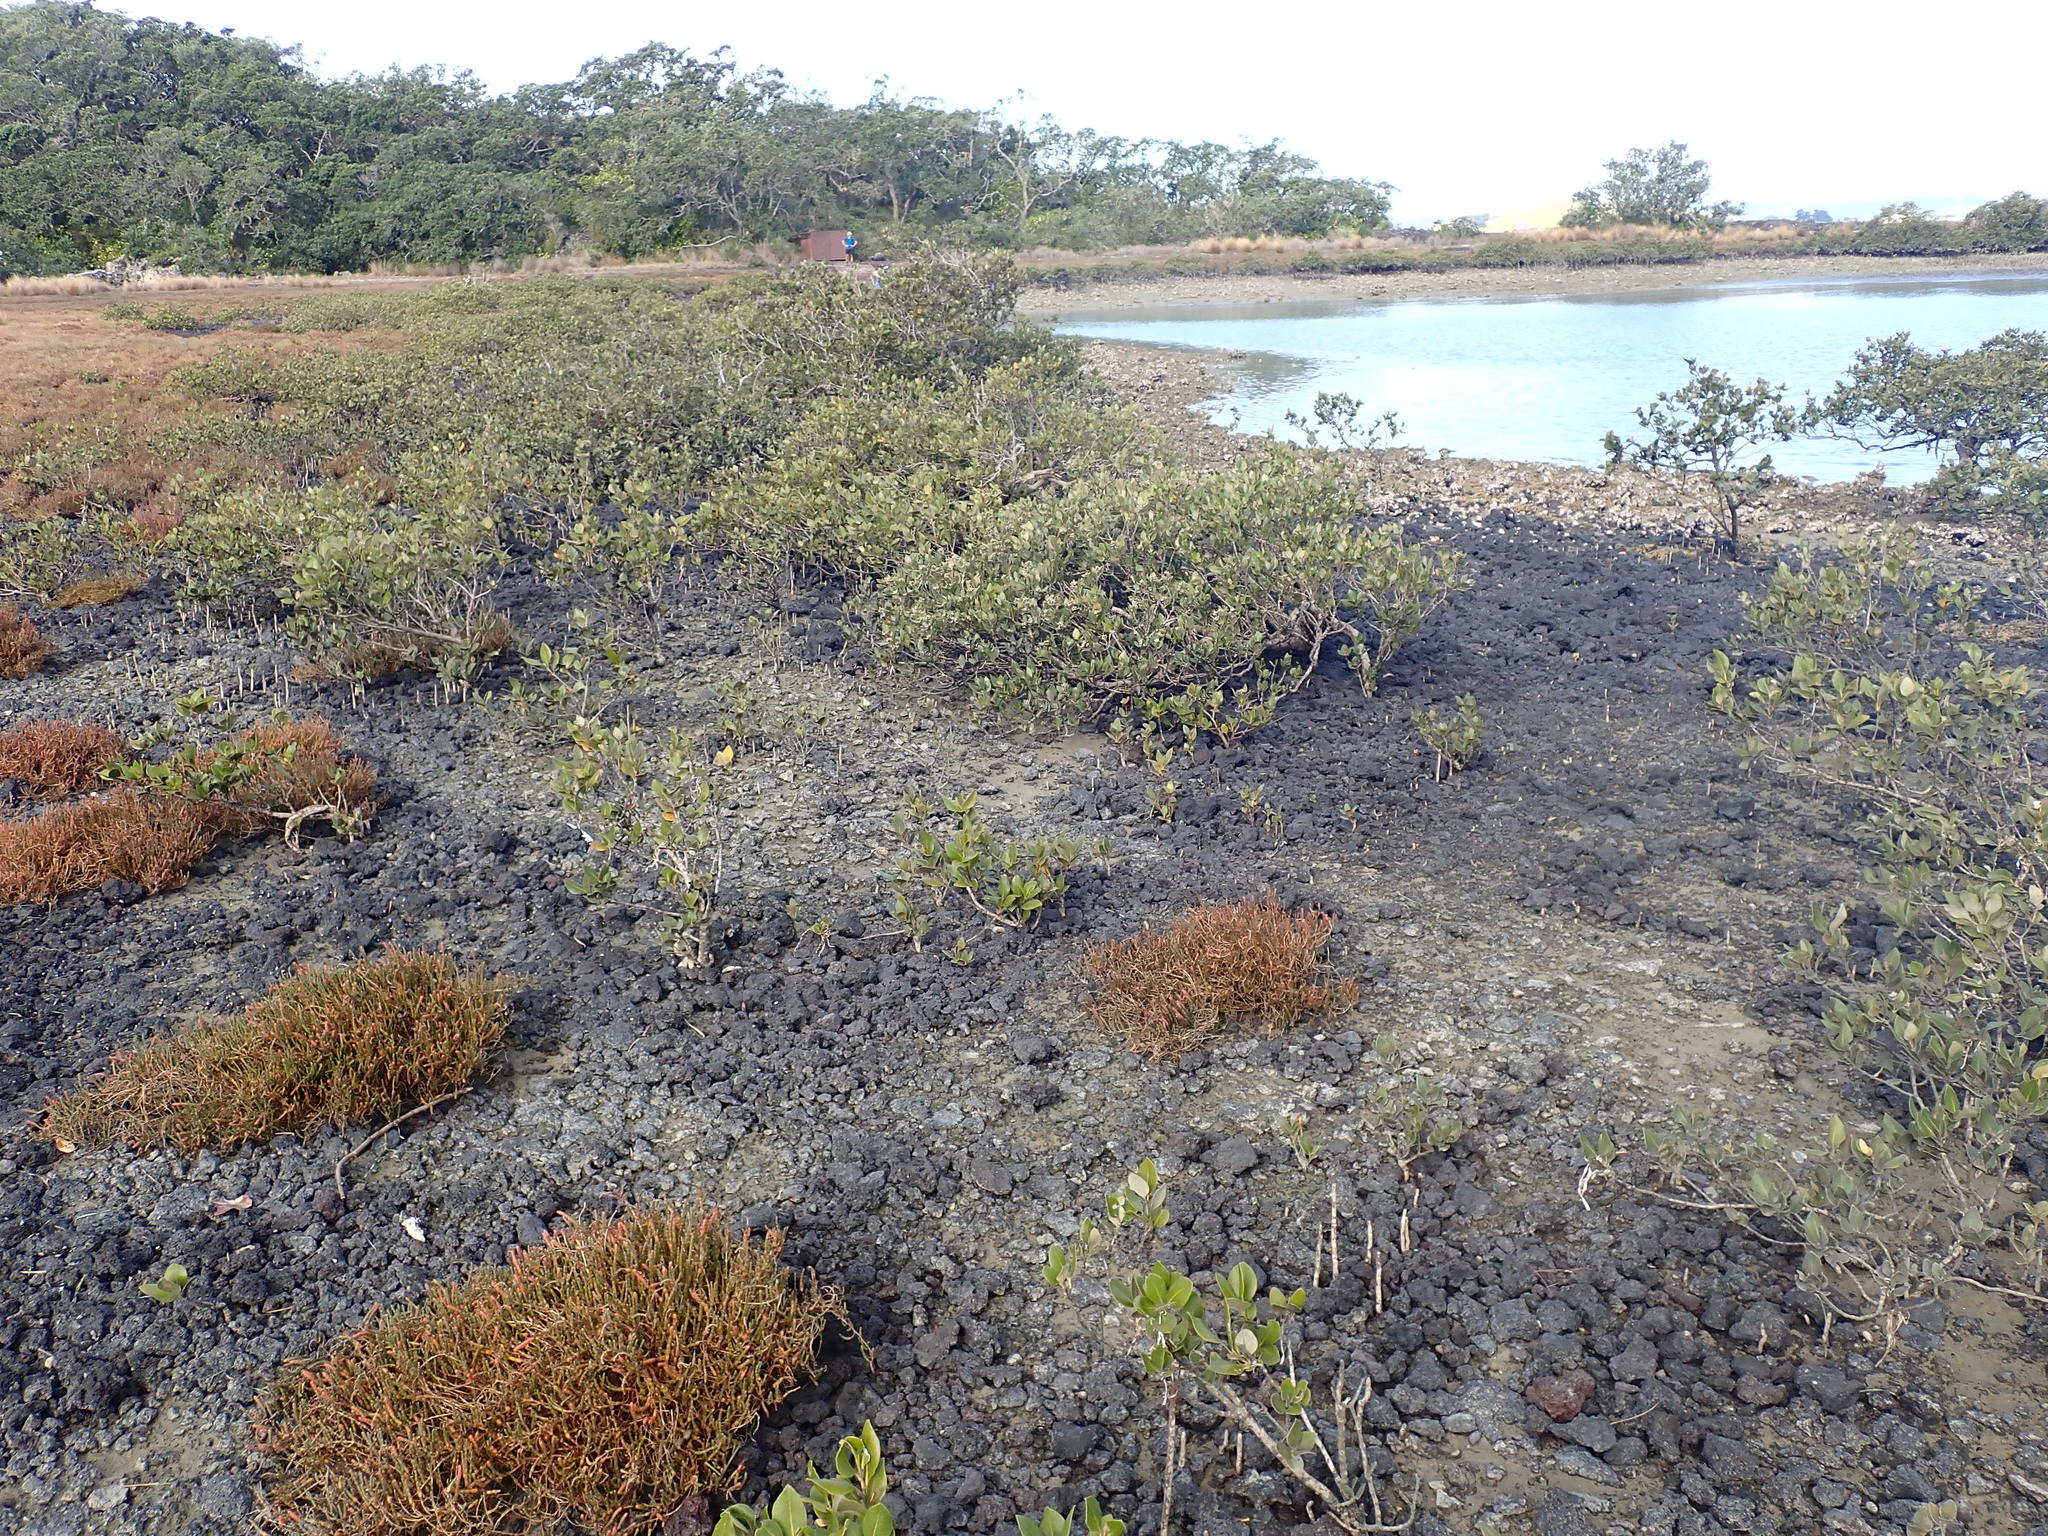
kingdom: Plantae
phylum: Tracheophyta
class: Magnoliopsida
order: Lamiales
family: Acanthaceae
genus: Avicennia
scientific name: Avicennia marina
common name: Gray mangrove
